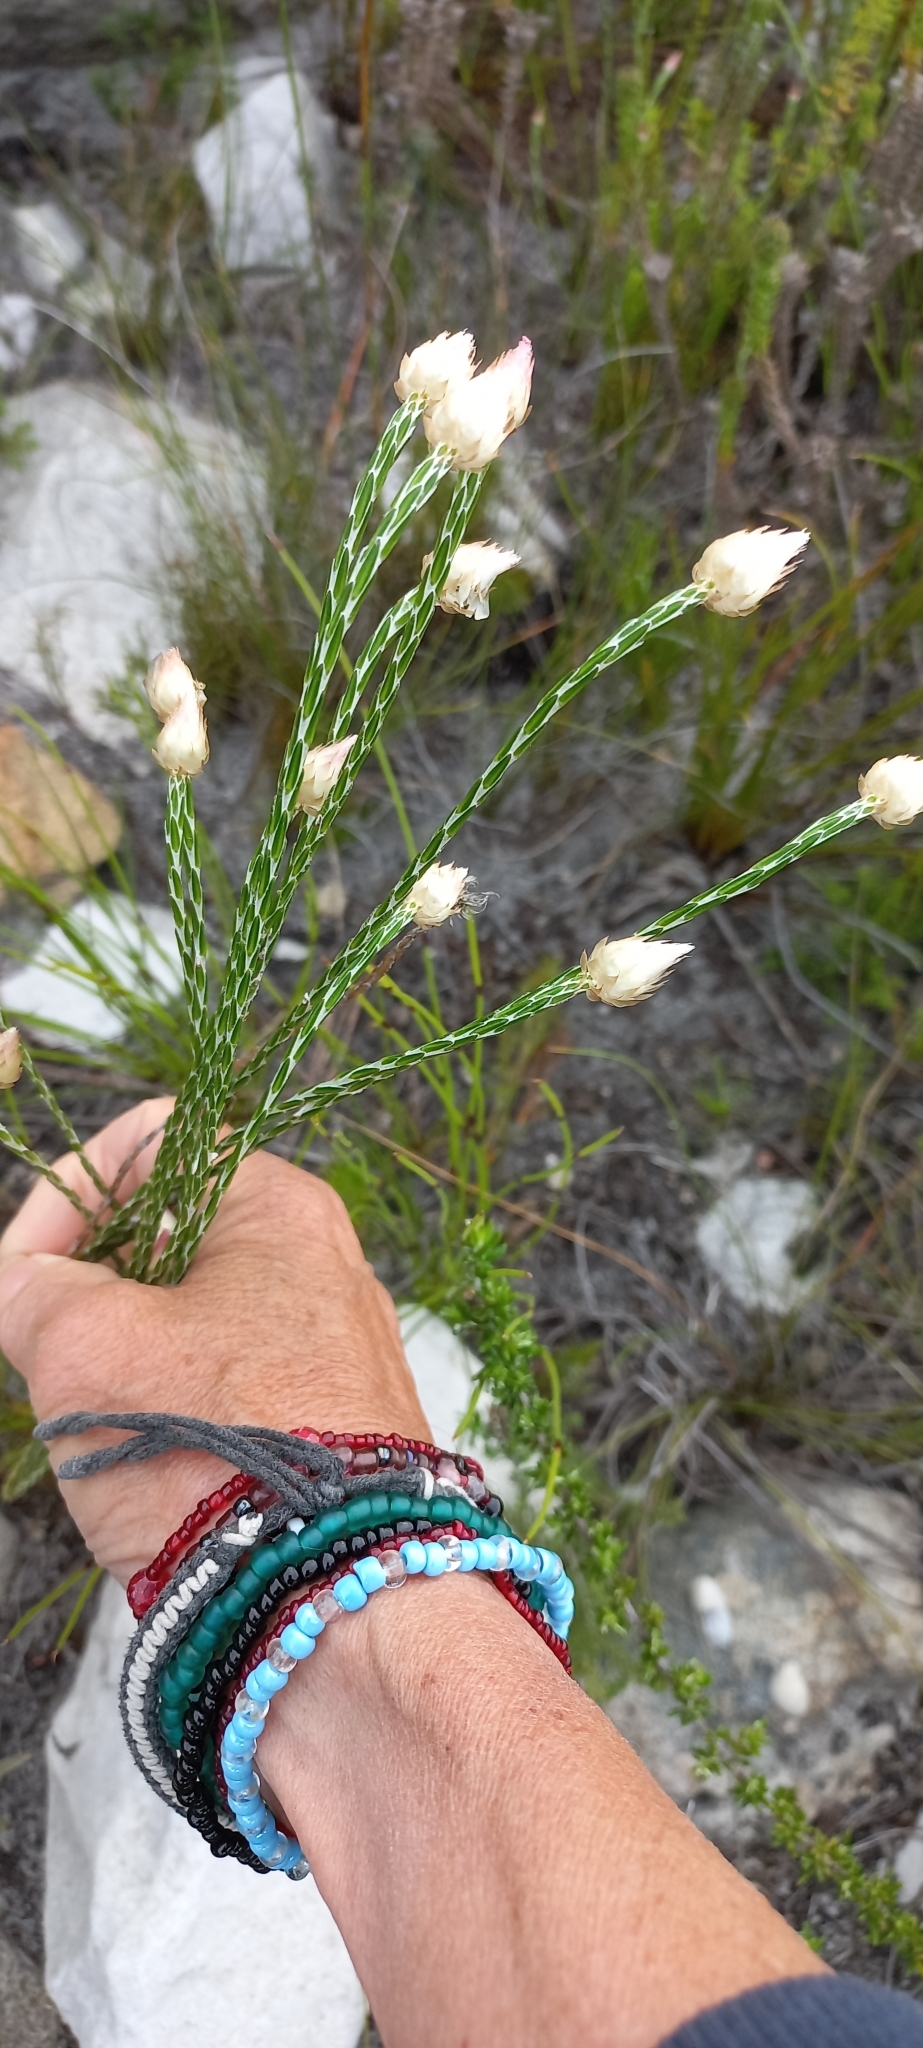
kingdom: Plantae
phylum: Tracheophyta
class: Magnoliopsida
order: Asterales
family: Asteraceae
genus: Edmondia
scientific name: Edmondia sesamoides
